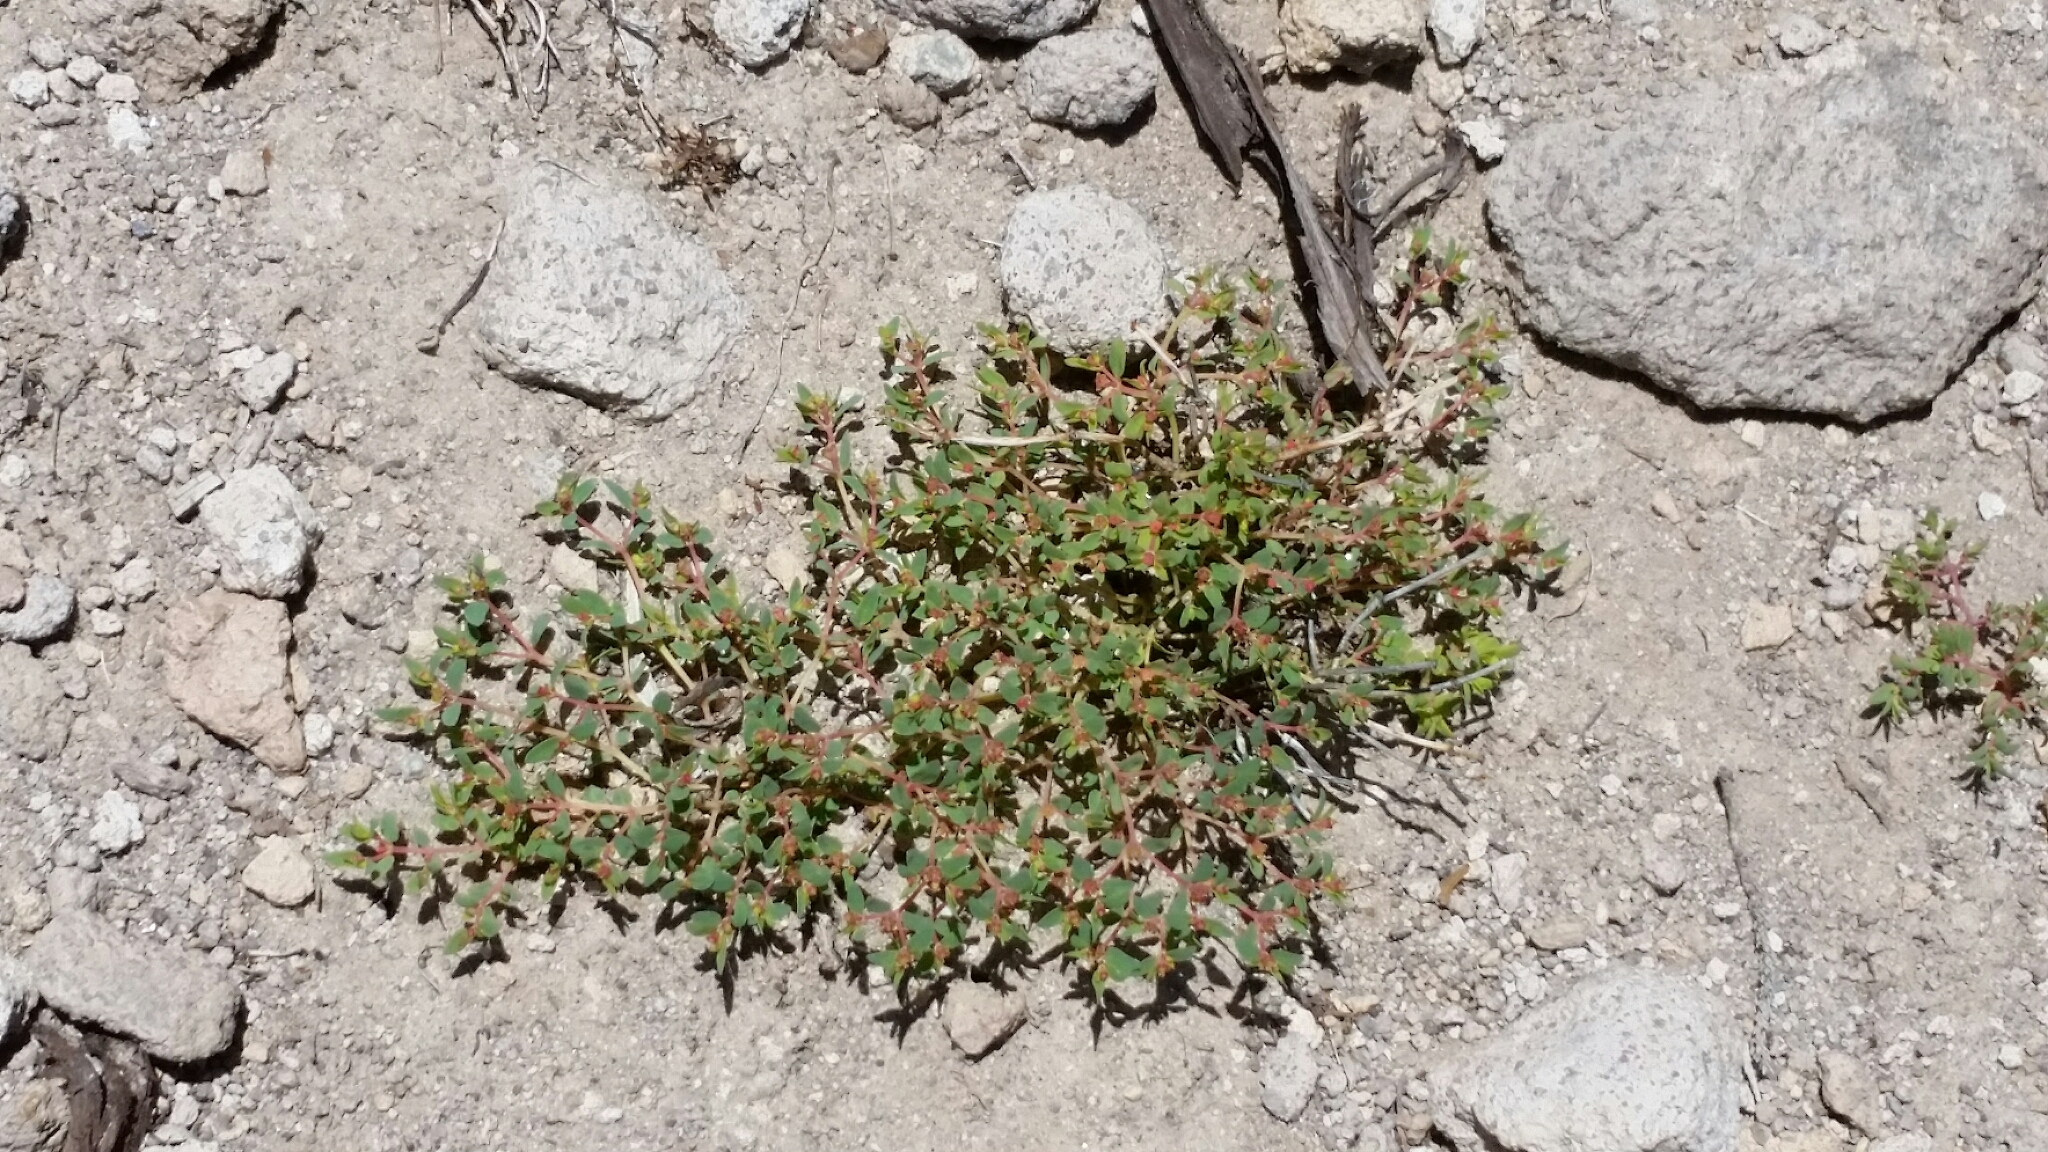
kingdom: Plantae
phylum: Tracheophyta
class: Magnoliopsida
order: Malpighiales
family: Euphorbiaceae
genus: Euphorbia
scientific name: Euphorbia fendleri
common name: Fendler's euphorbia
